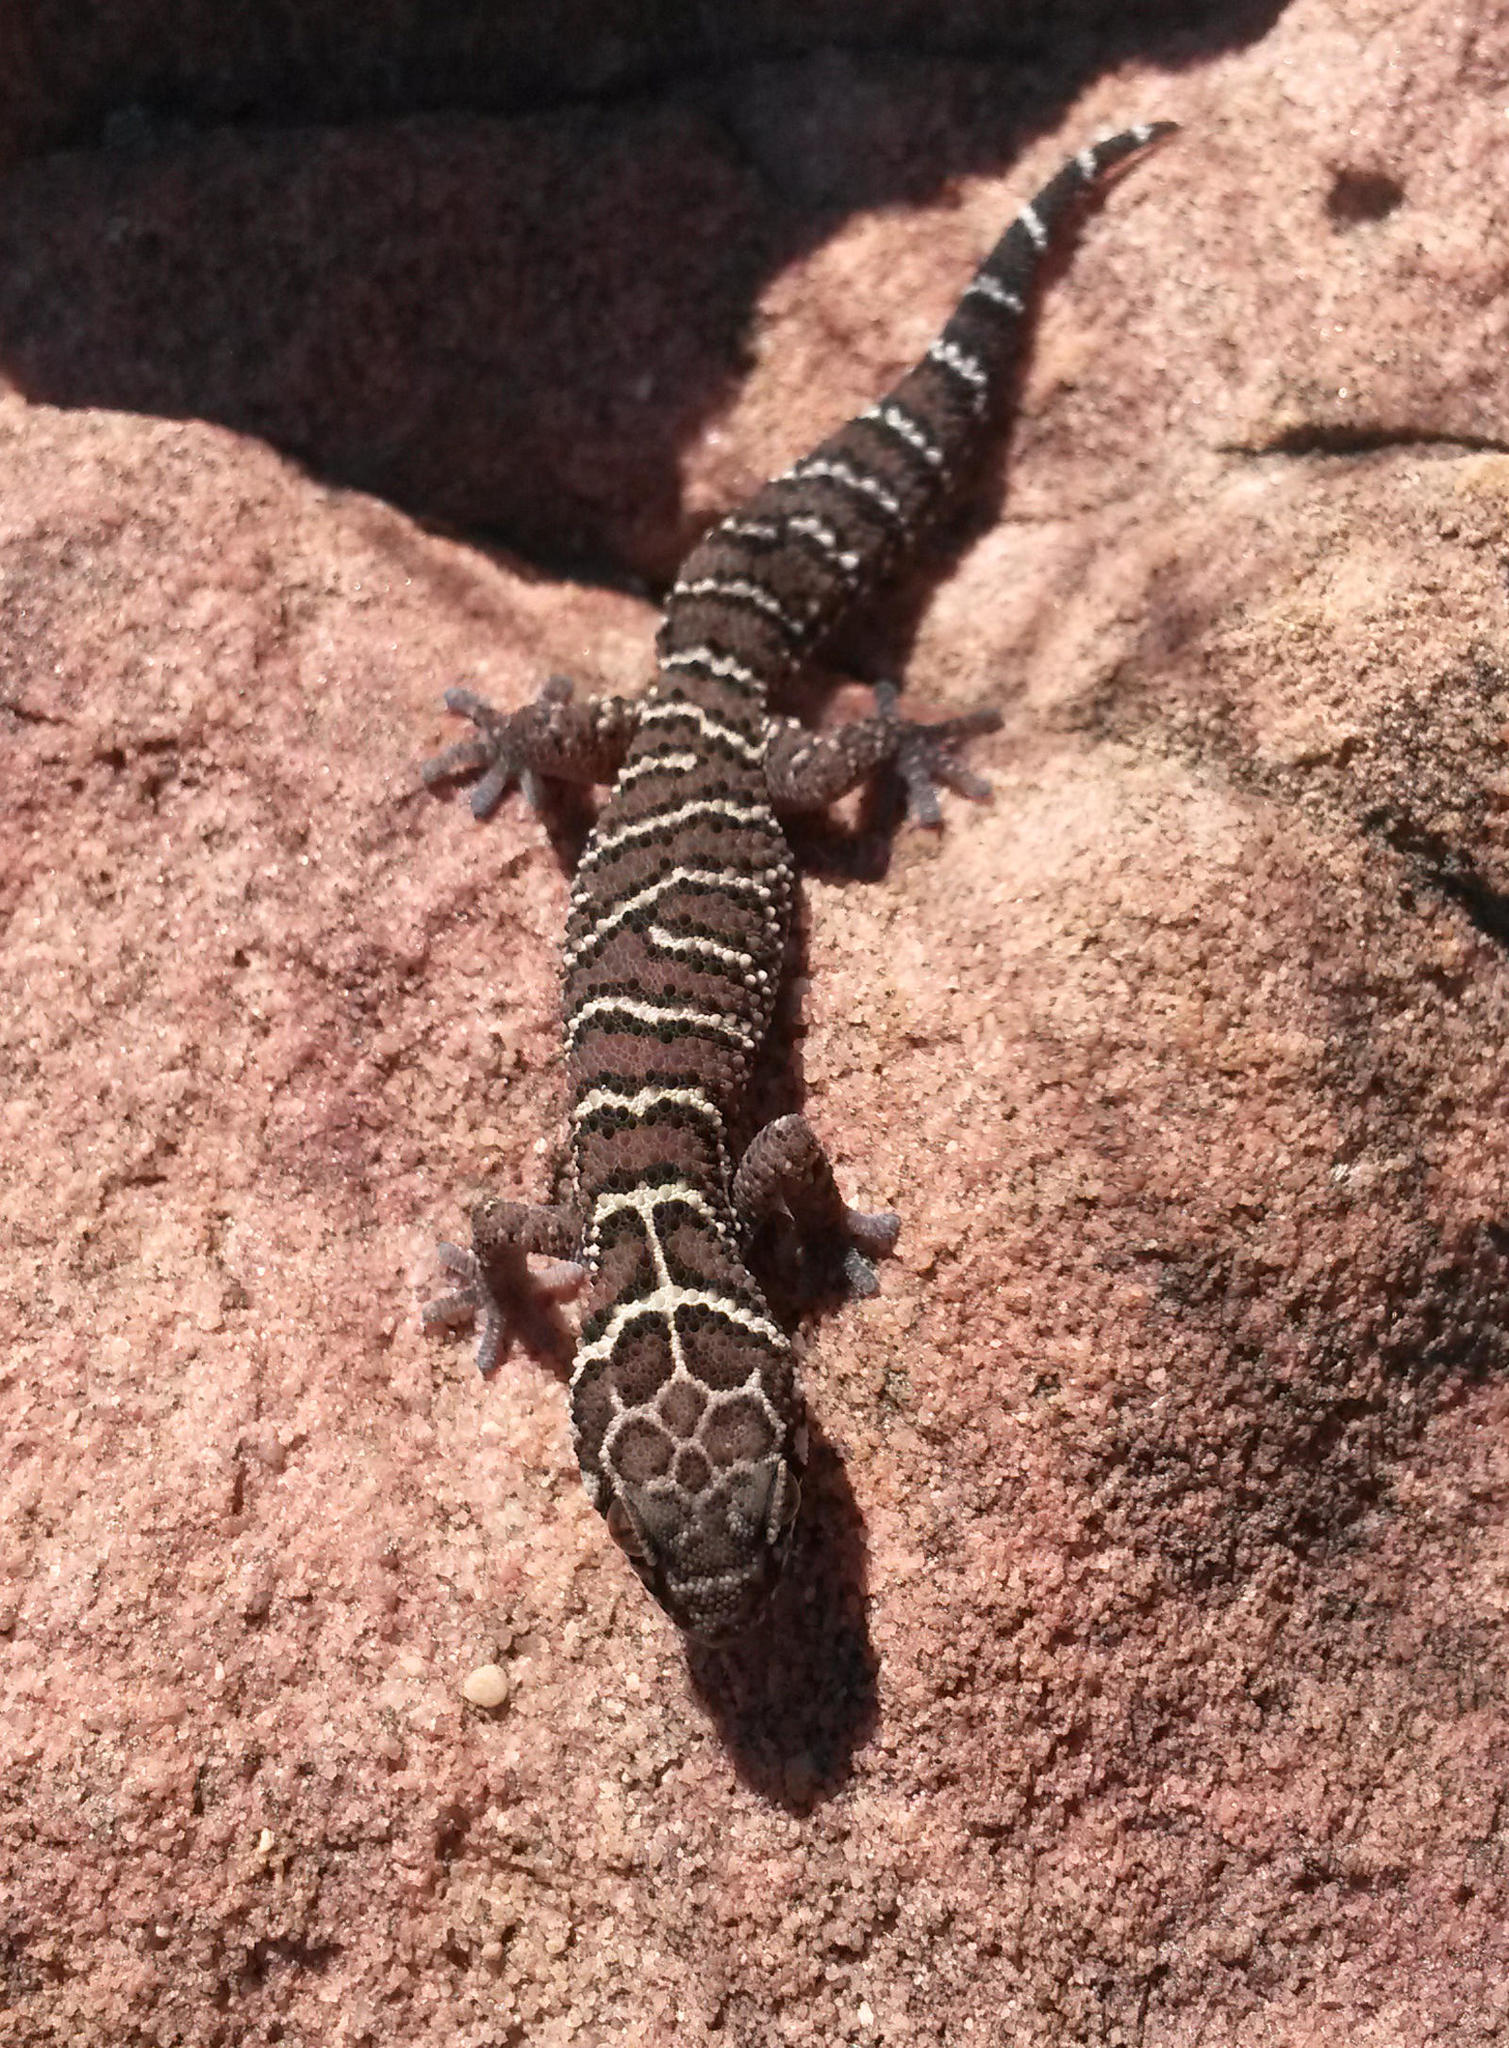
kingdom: Animalia
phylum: Chordata
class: Squamata
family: Gekkonidae
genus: Pachydactylus
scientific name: Pachydactylus vansoni
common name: Van son's gecko
